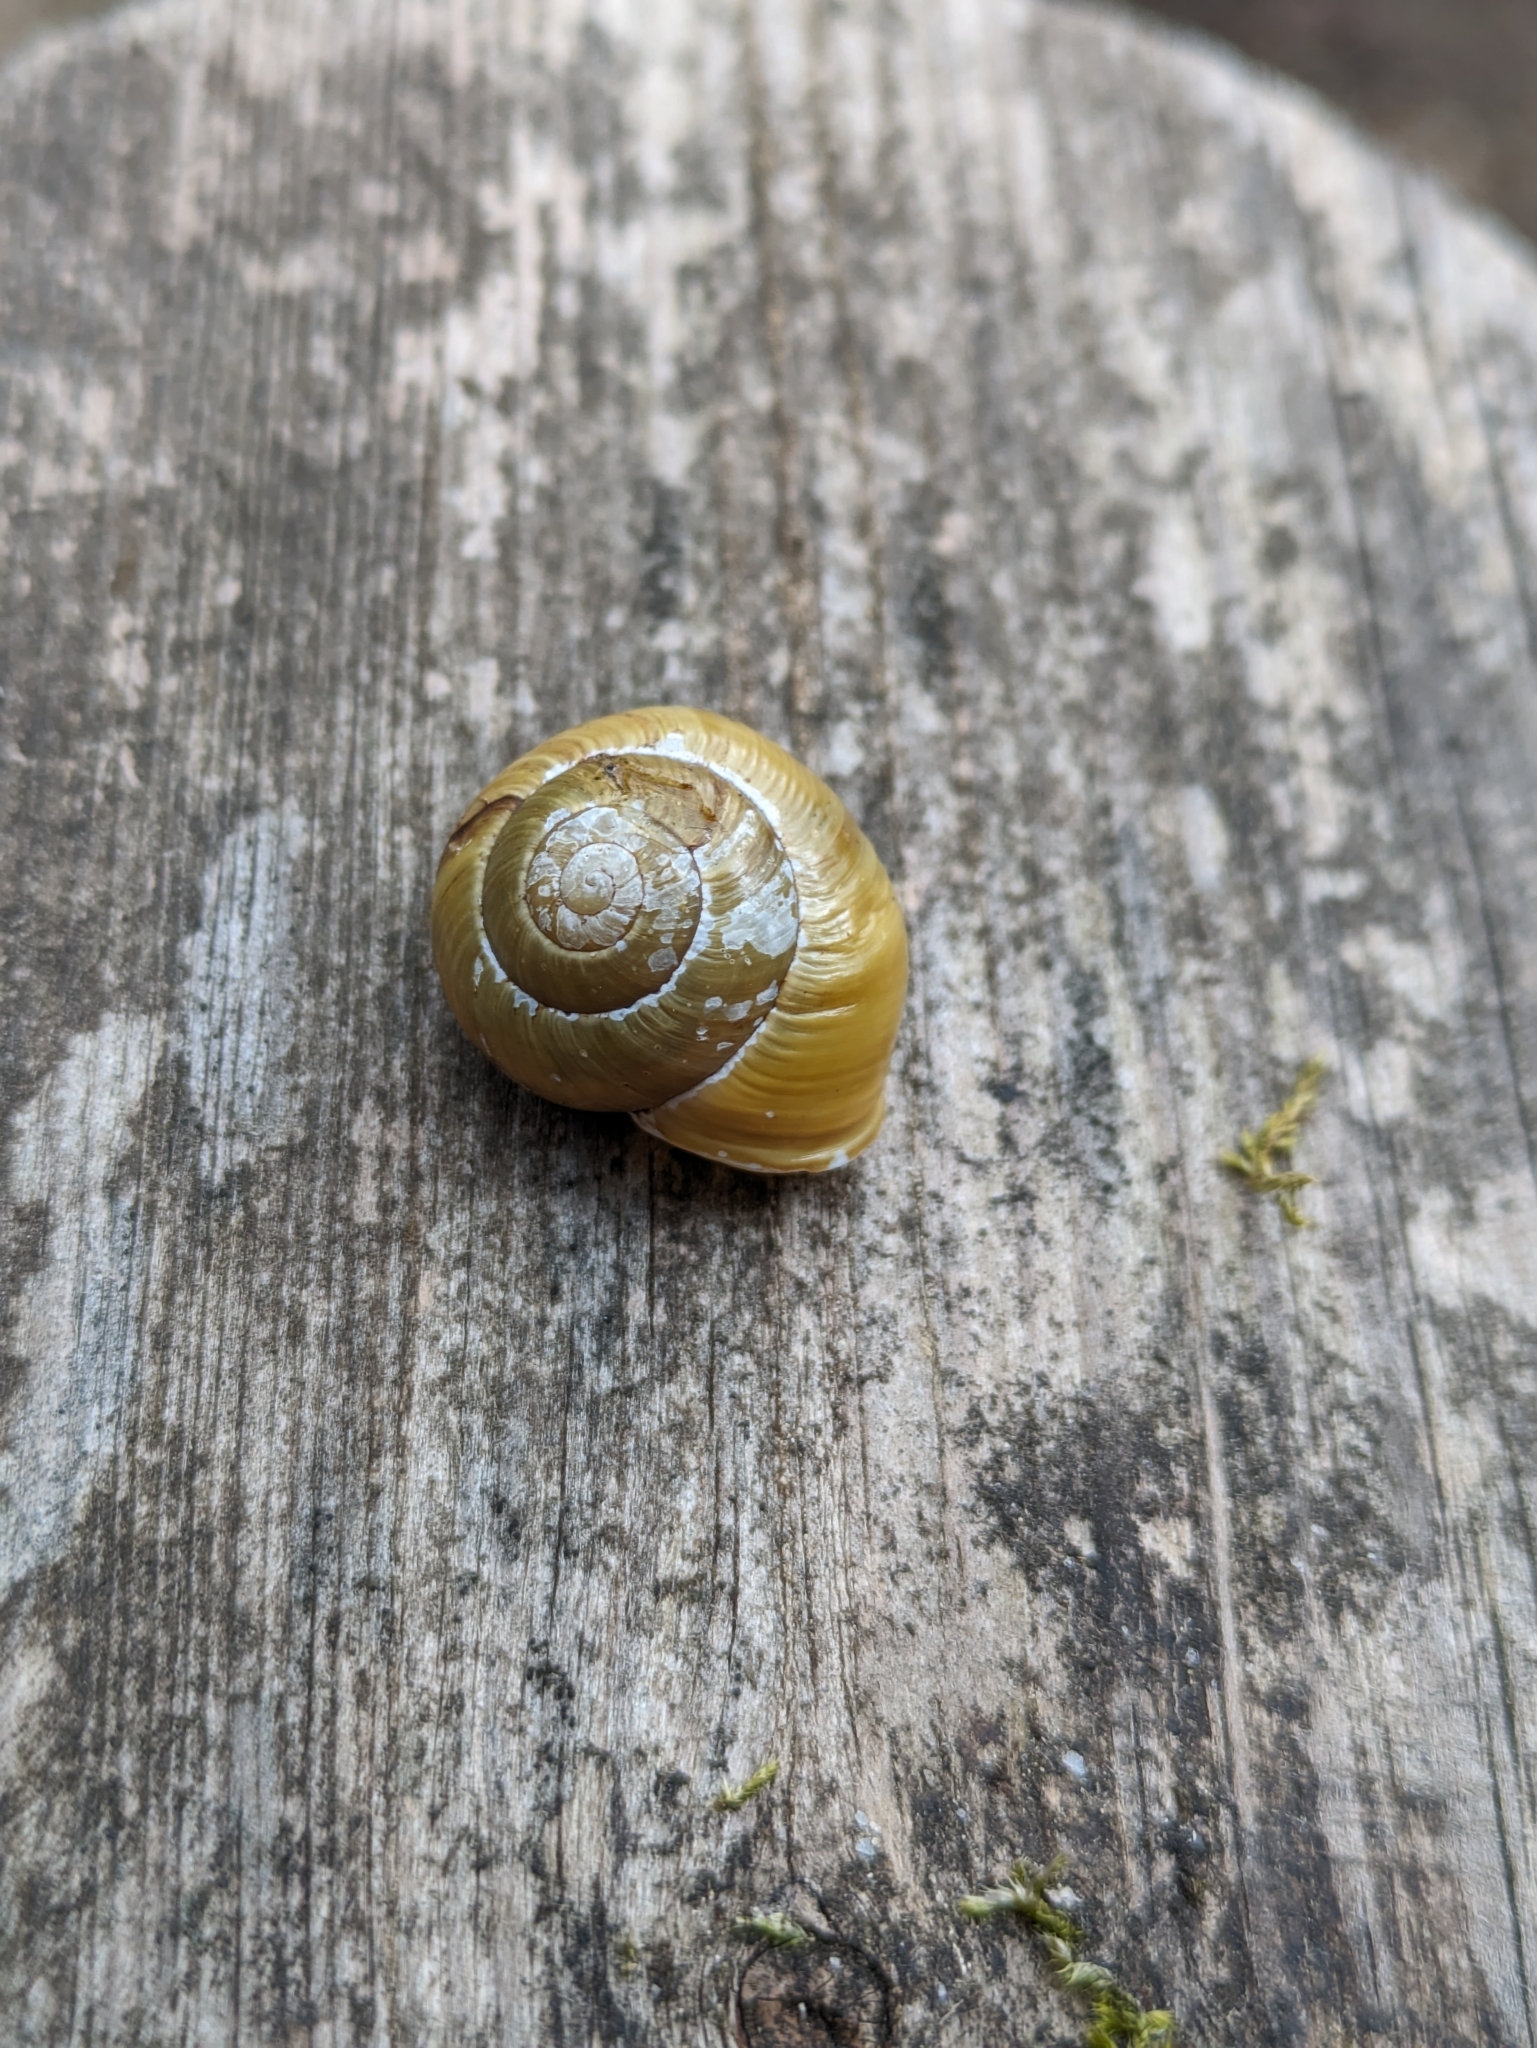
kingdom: Animalia
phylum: Mollusca
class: Gastropoda
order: Stylommatophora
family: Helicidae
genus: Cepaea
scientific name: Cepaea hortensis
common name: White-lip gardensnail
